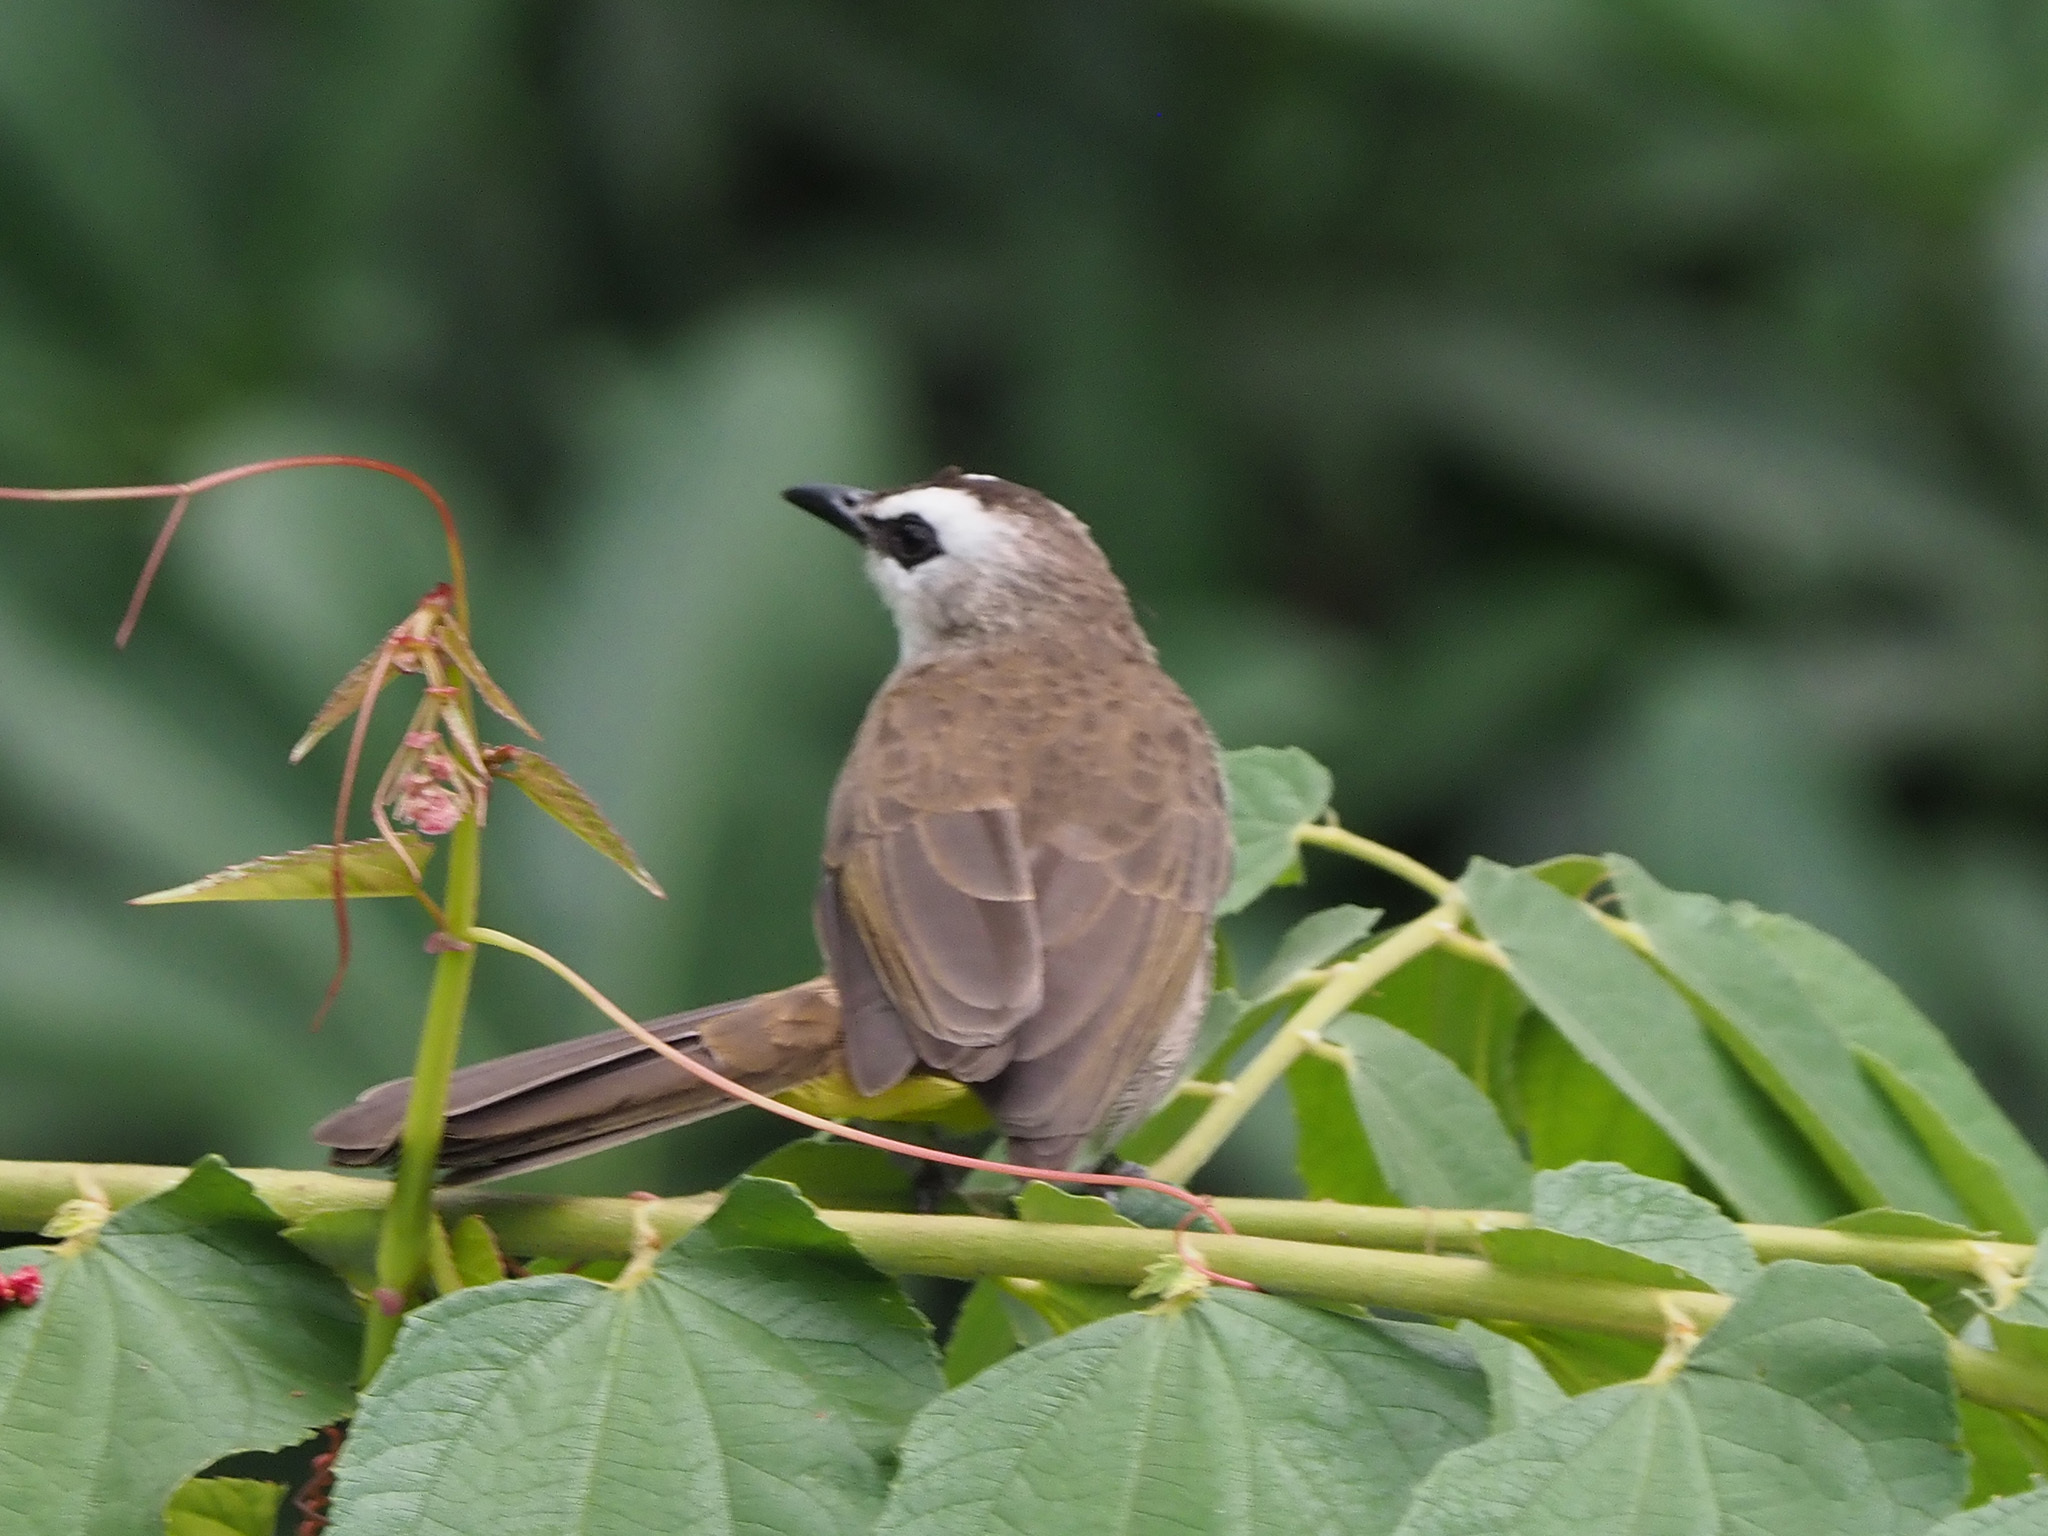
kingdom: Animalia
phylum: Chordata
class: Aves
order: Passeriformes
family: Pycnonotidae
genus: Pycnonotus
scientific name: Pycnonotus goiavier
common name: Yellow-vented bulbul
